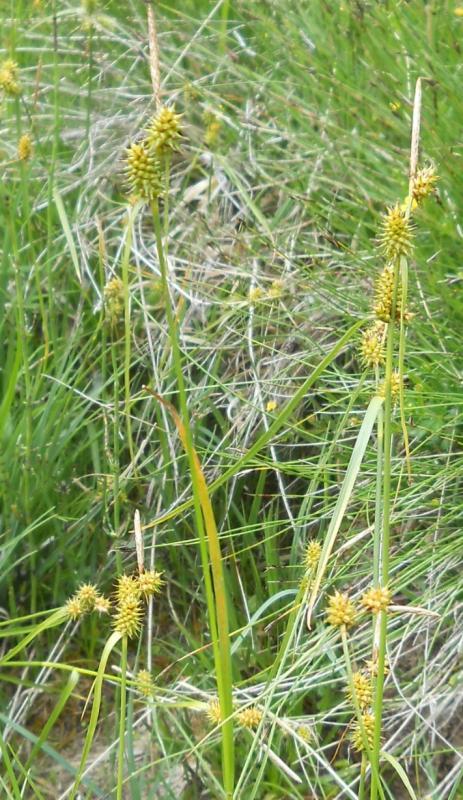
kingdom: Plantae
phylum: Tracheophyta
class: Liliopsida
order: Poales
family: Cyperaceae
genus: Carex
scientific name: Carex flava
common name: Large yellow-sedge
